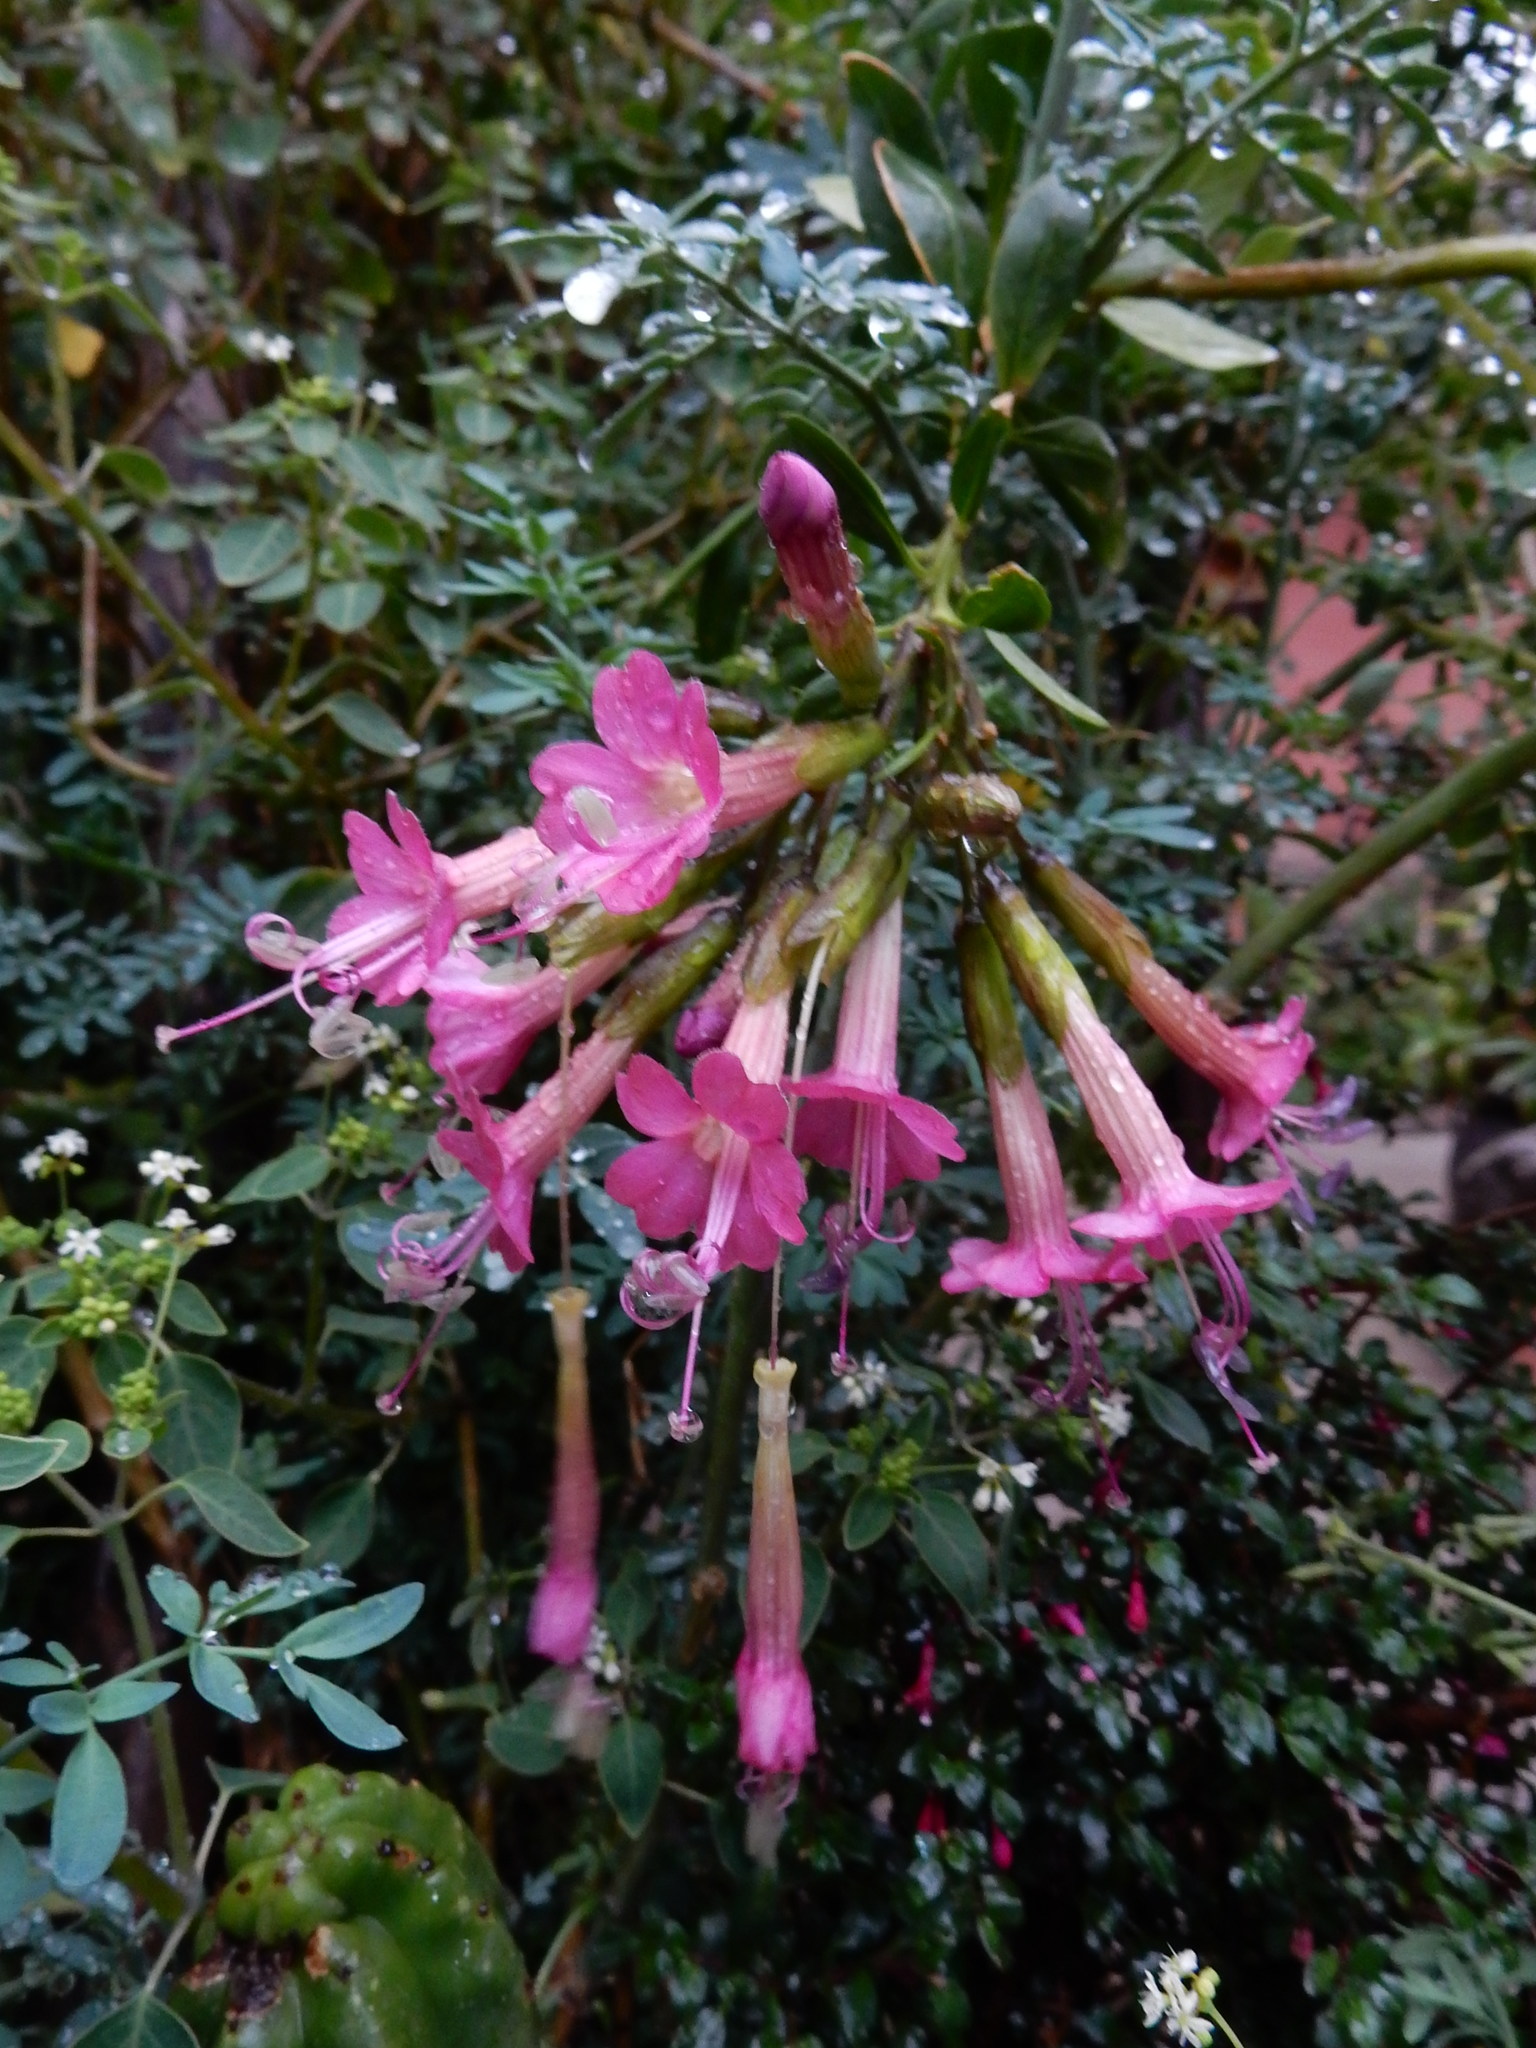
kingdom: Plantae
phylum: Tracheophyta
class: Magnoliopsida
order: Ericales
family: Polemoniaceae
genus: Cantua
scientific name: Cantua buxifolia
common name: Sacred-flower-of-the-incas
